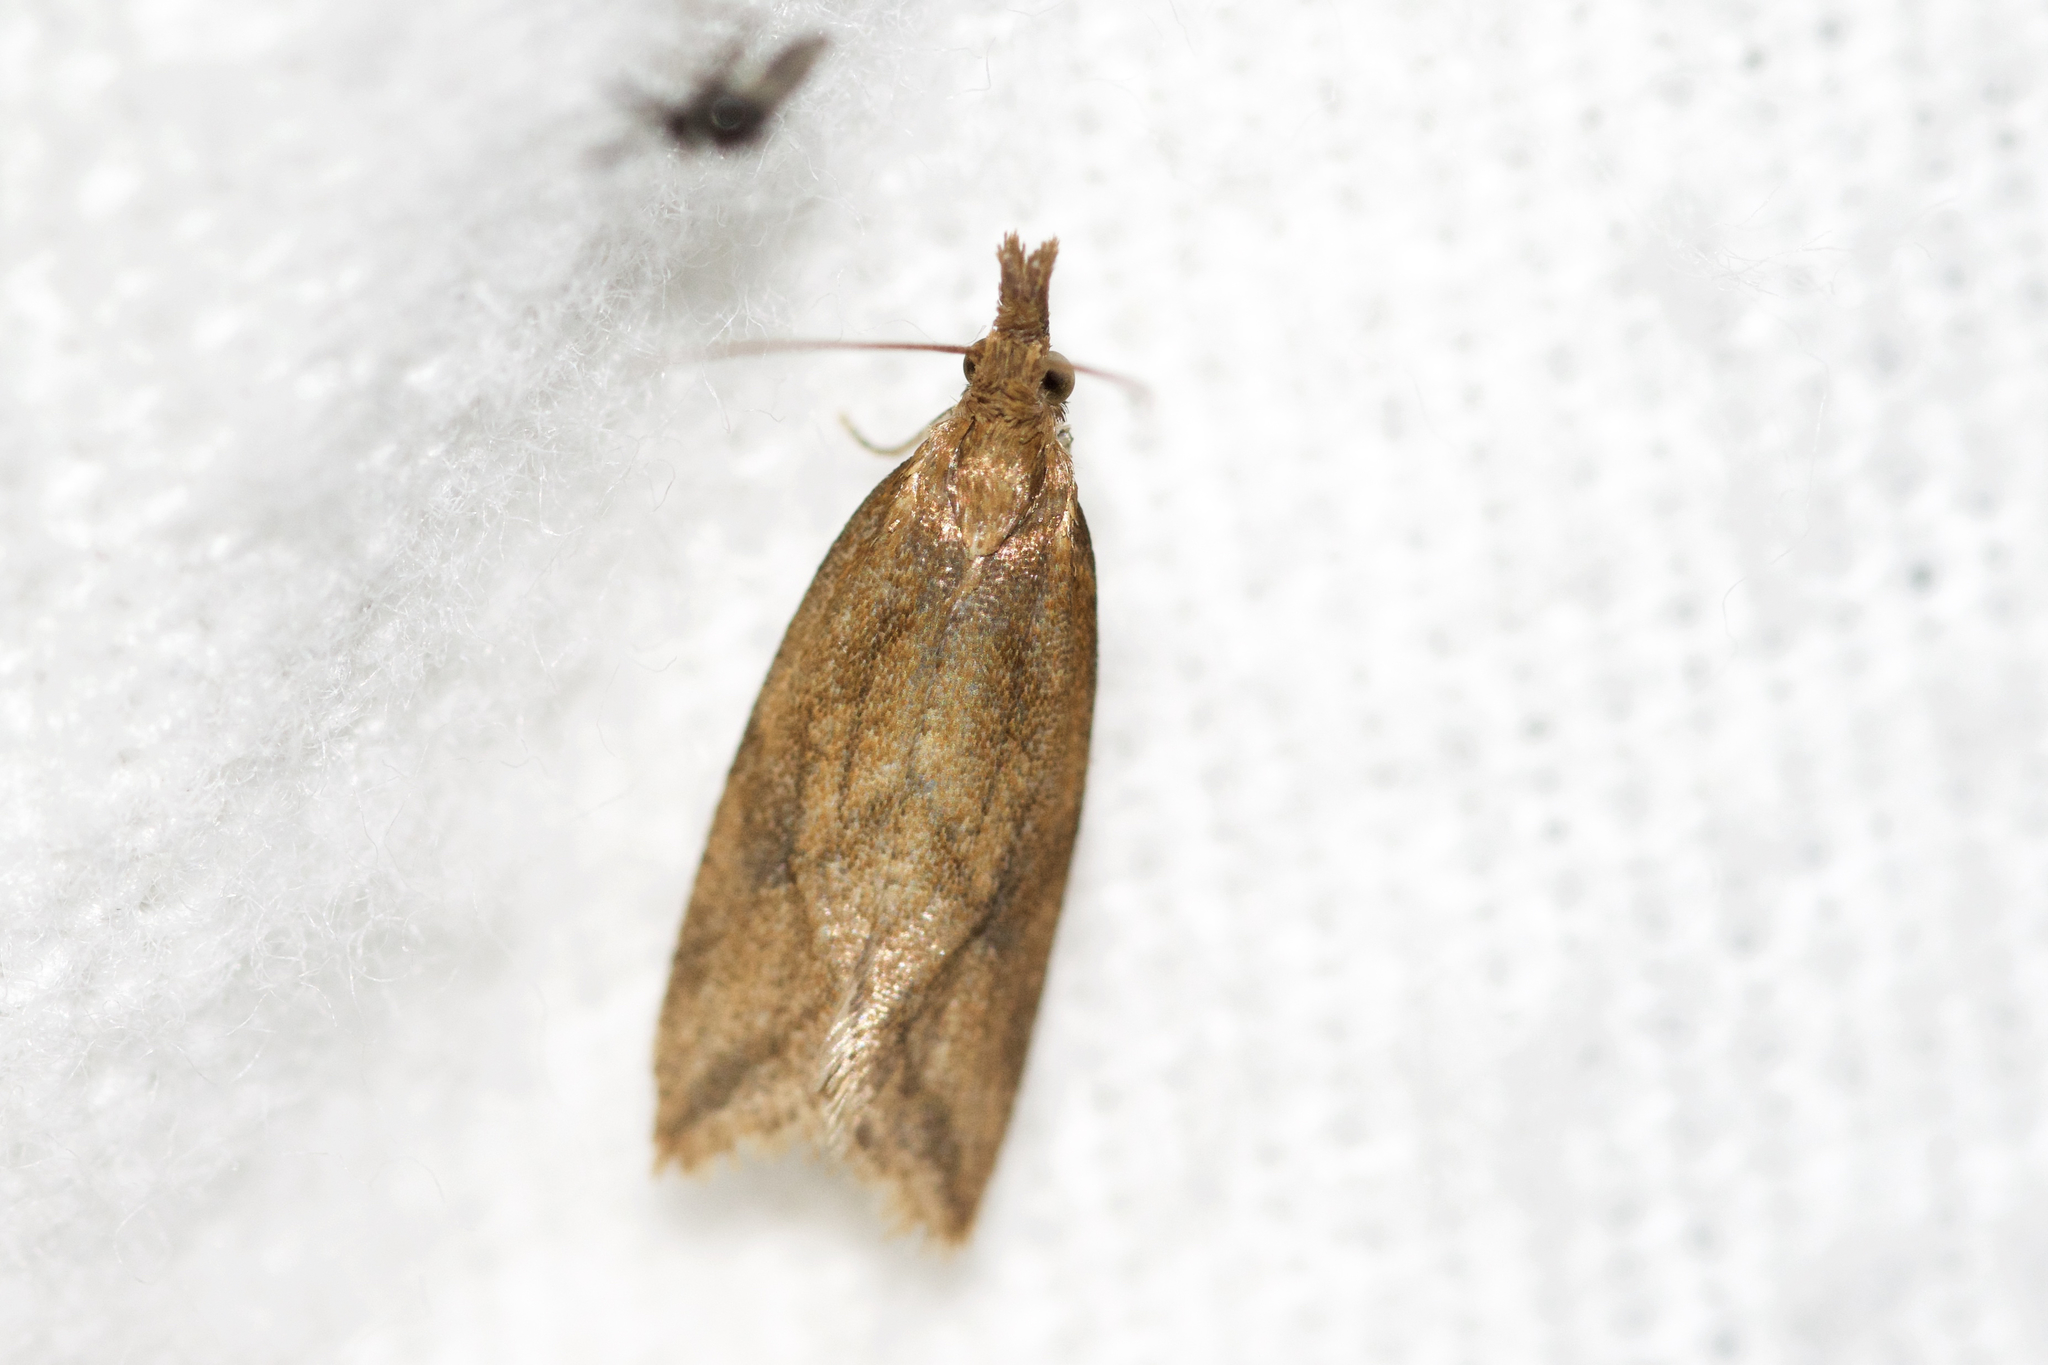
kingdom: Animalia
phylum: Arthropoda
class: Insecta
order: Lepidoptera
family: Tortricidae
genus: Aethes
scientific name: Aethes biscana
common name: Reddish aethes
